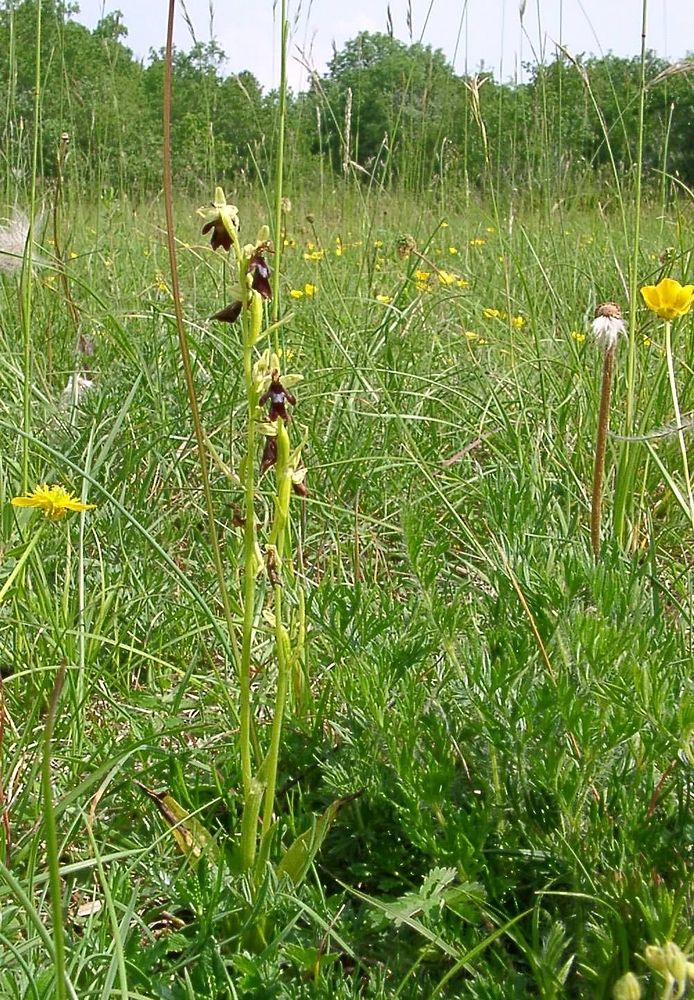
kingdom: Plantae
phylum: Tracheophyta
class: Liliopsida
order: Asparagales
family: Orchidaceae
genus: Ophrys
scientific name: Ophrys insectifera
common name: Fly orchid
